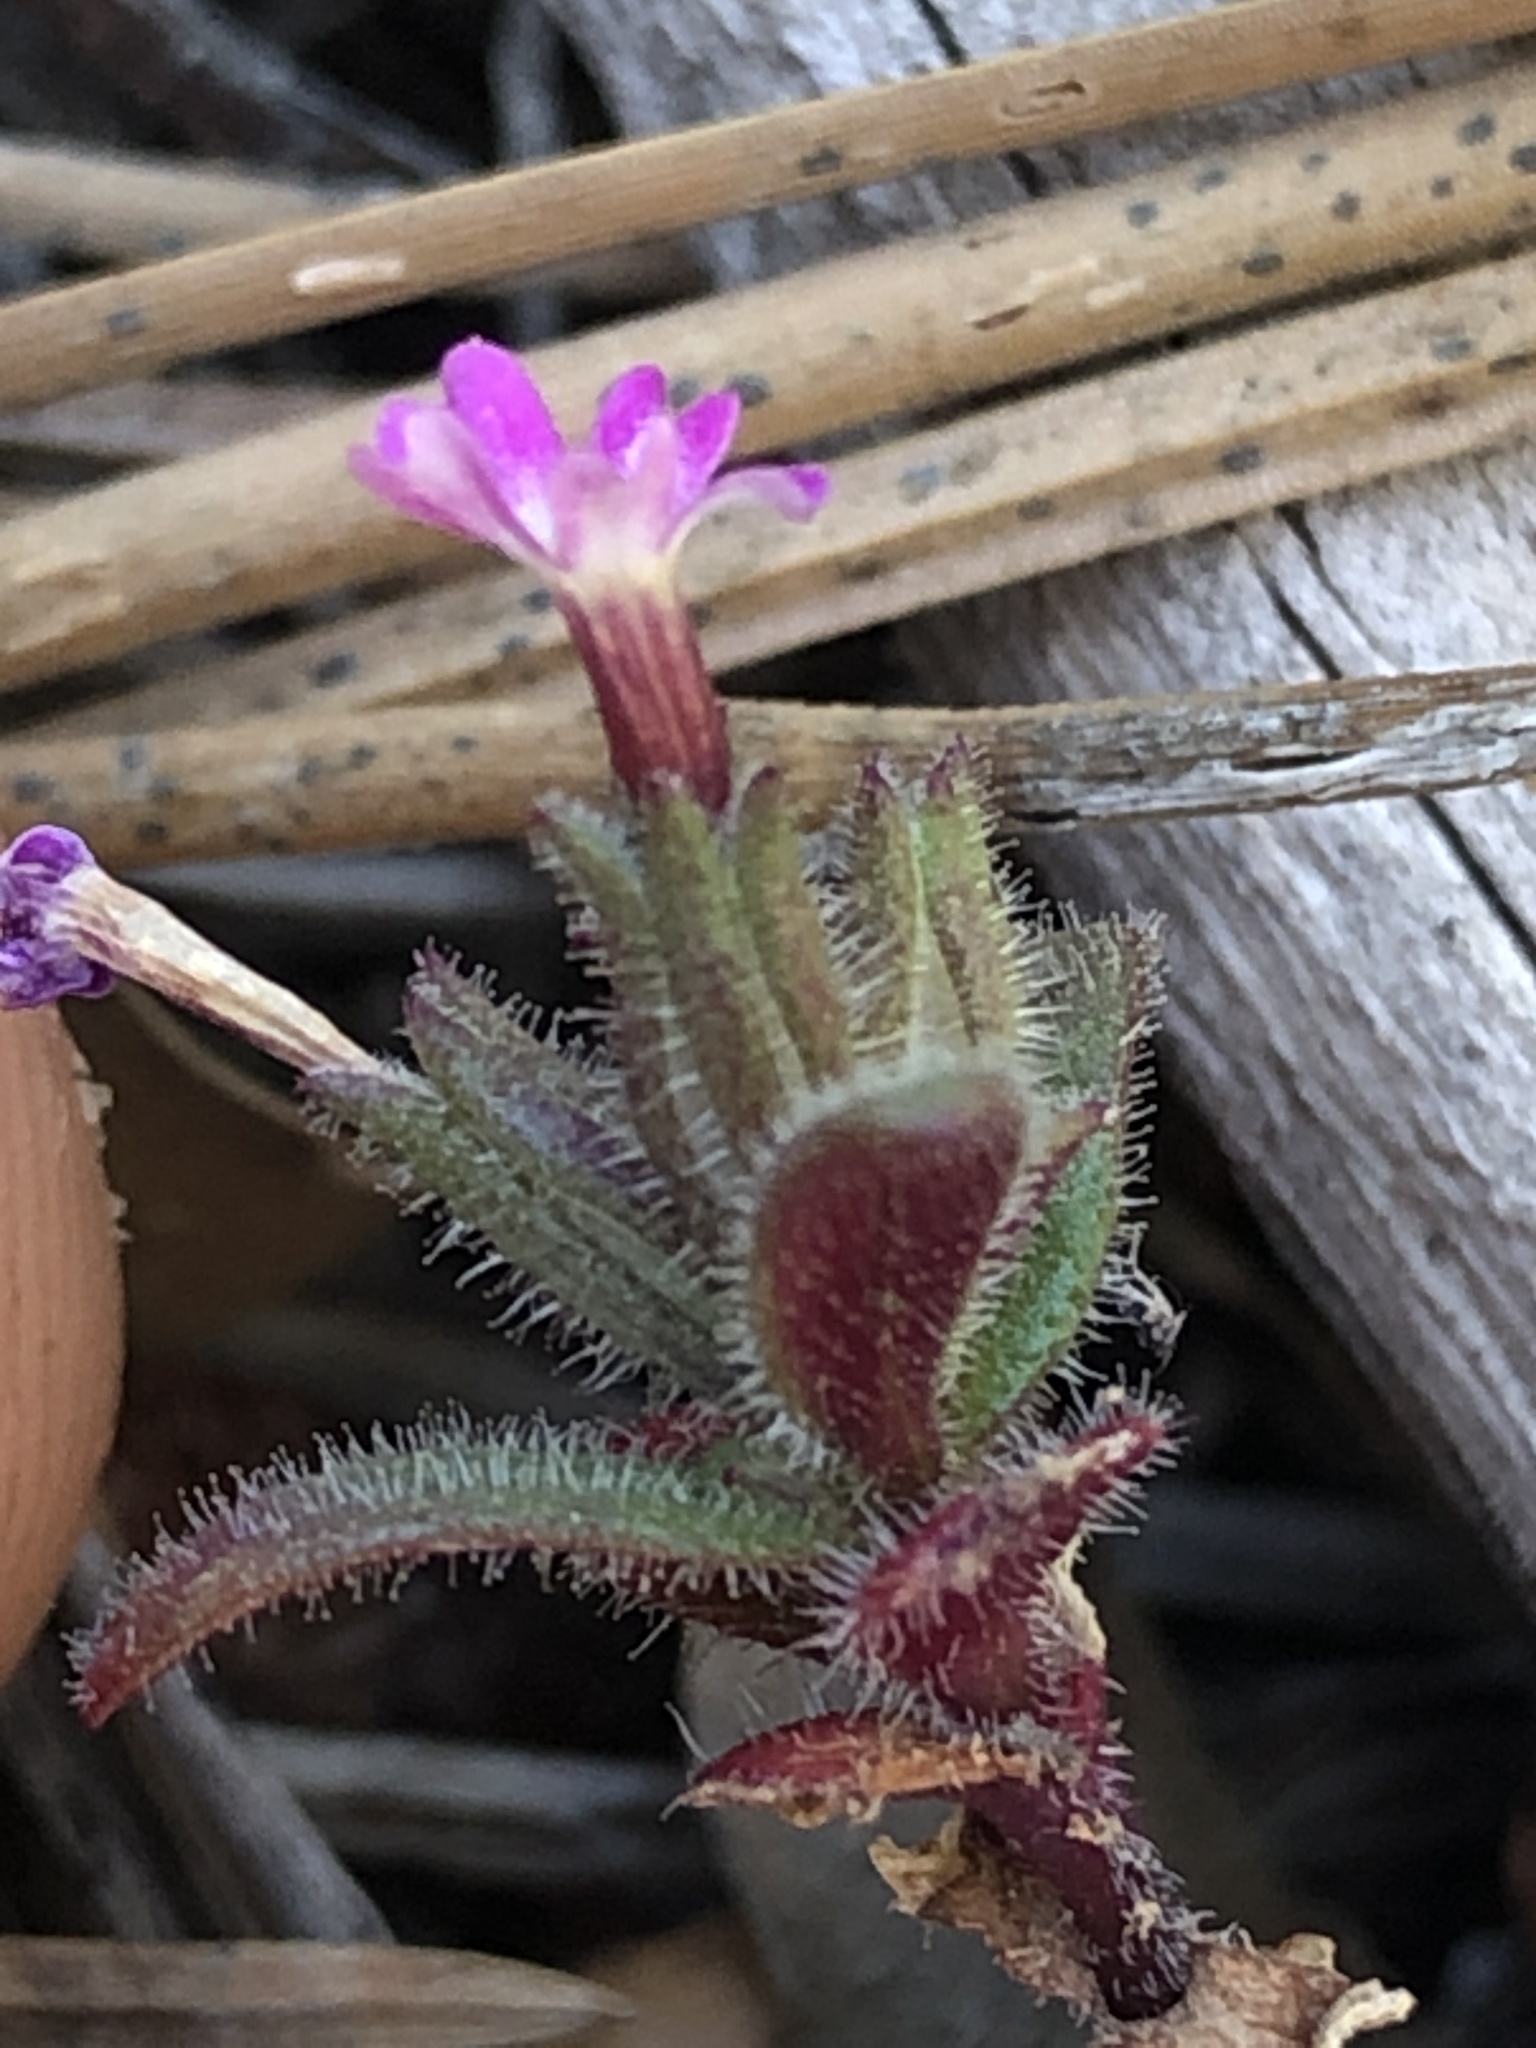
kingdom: Plantae
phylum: Tracheophyta
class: Magnoliopsida
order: Ericales
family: Polemoniaceae
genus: Phlox
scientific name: Phlox gracilis
